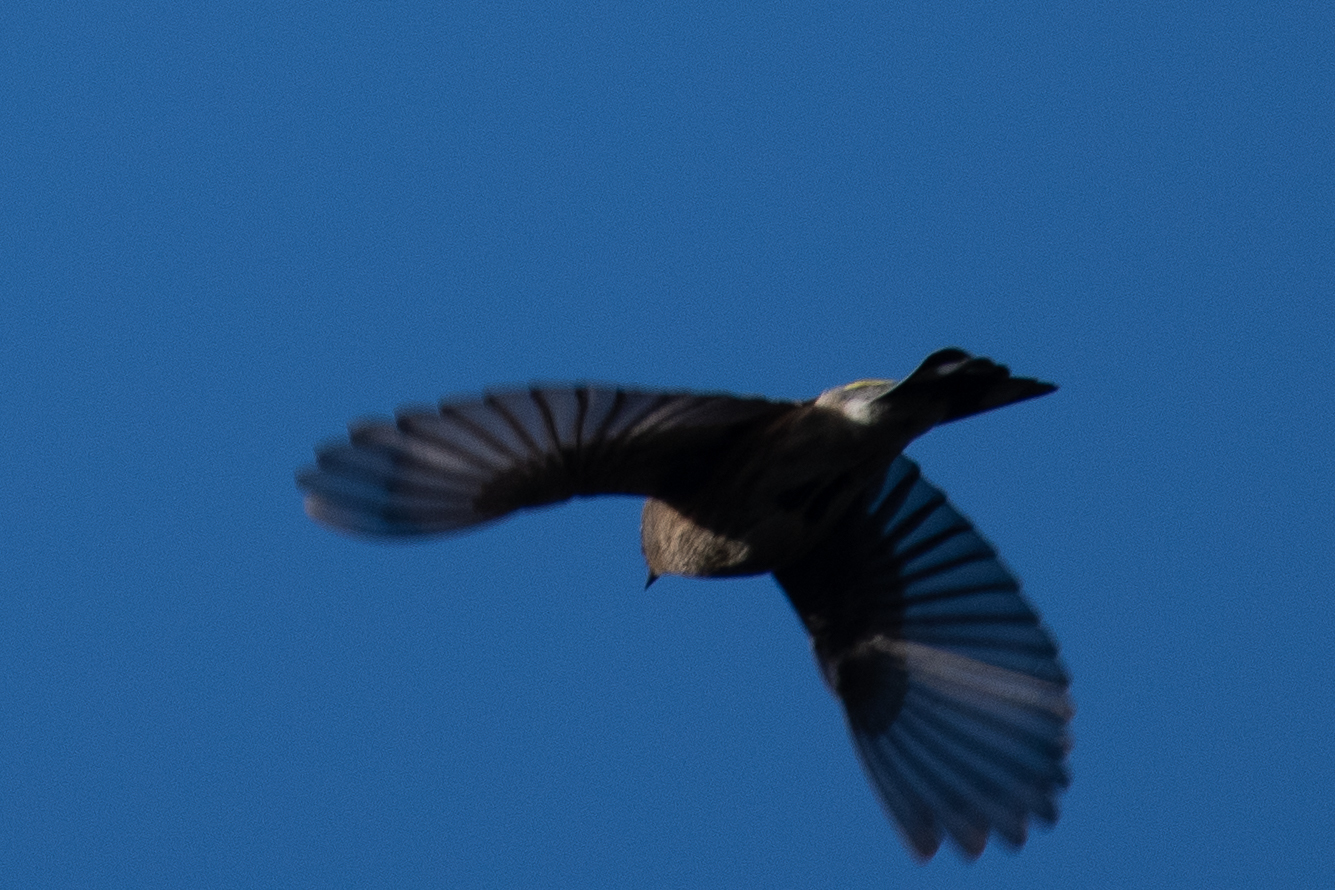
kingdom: Animalia
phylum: Chordata
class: Aves
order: Passeriformes
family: Parulidae
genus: Setophaga
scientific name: Setophaga coronata
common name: Myrtle warbler
